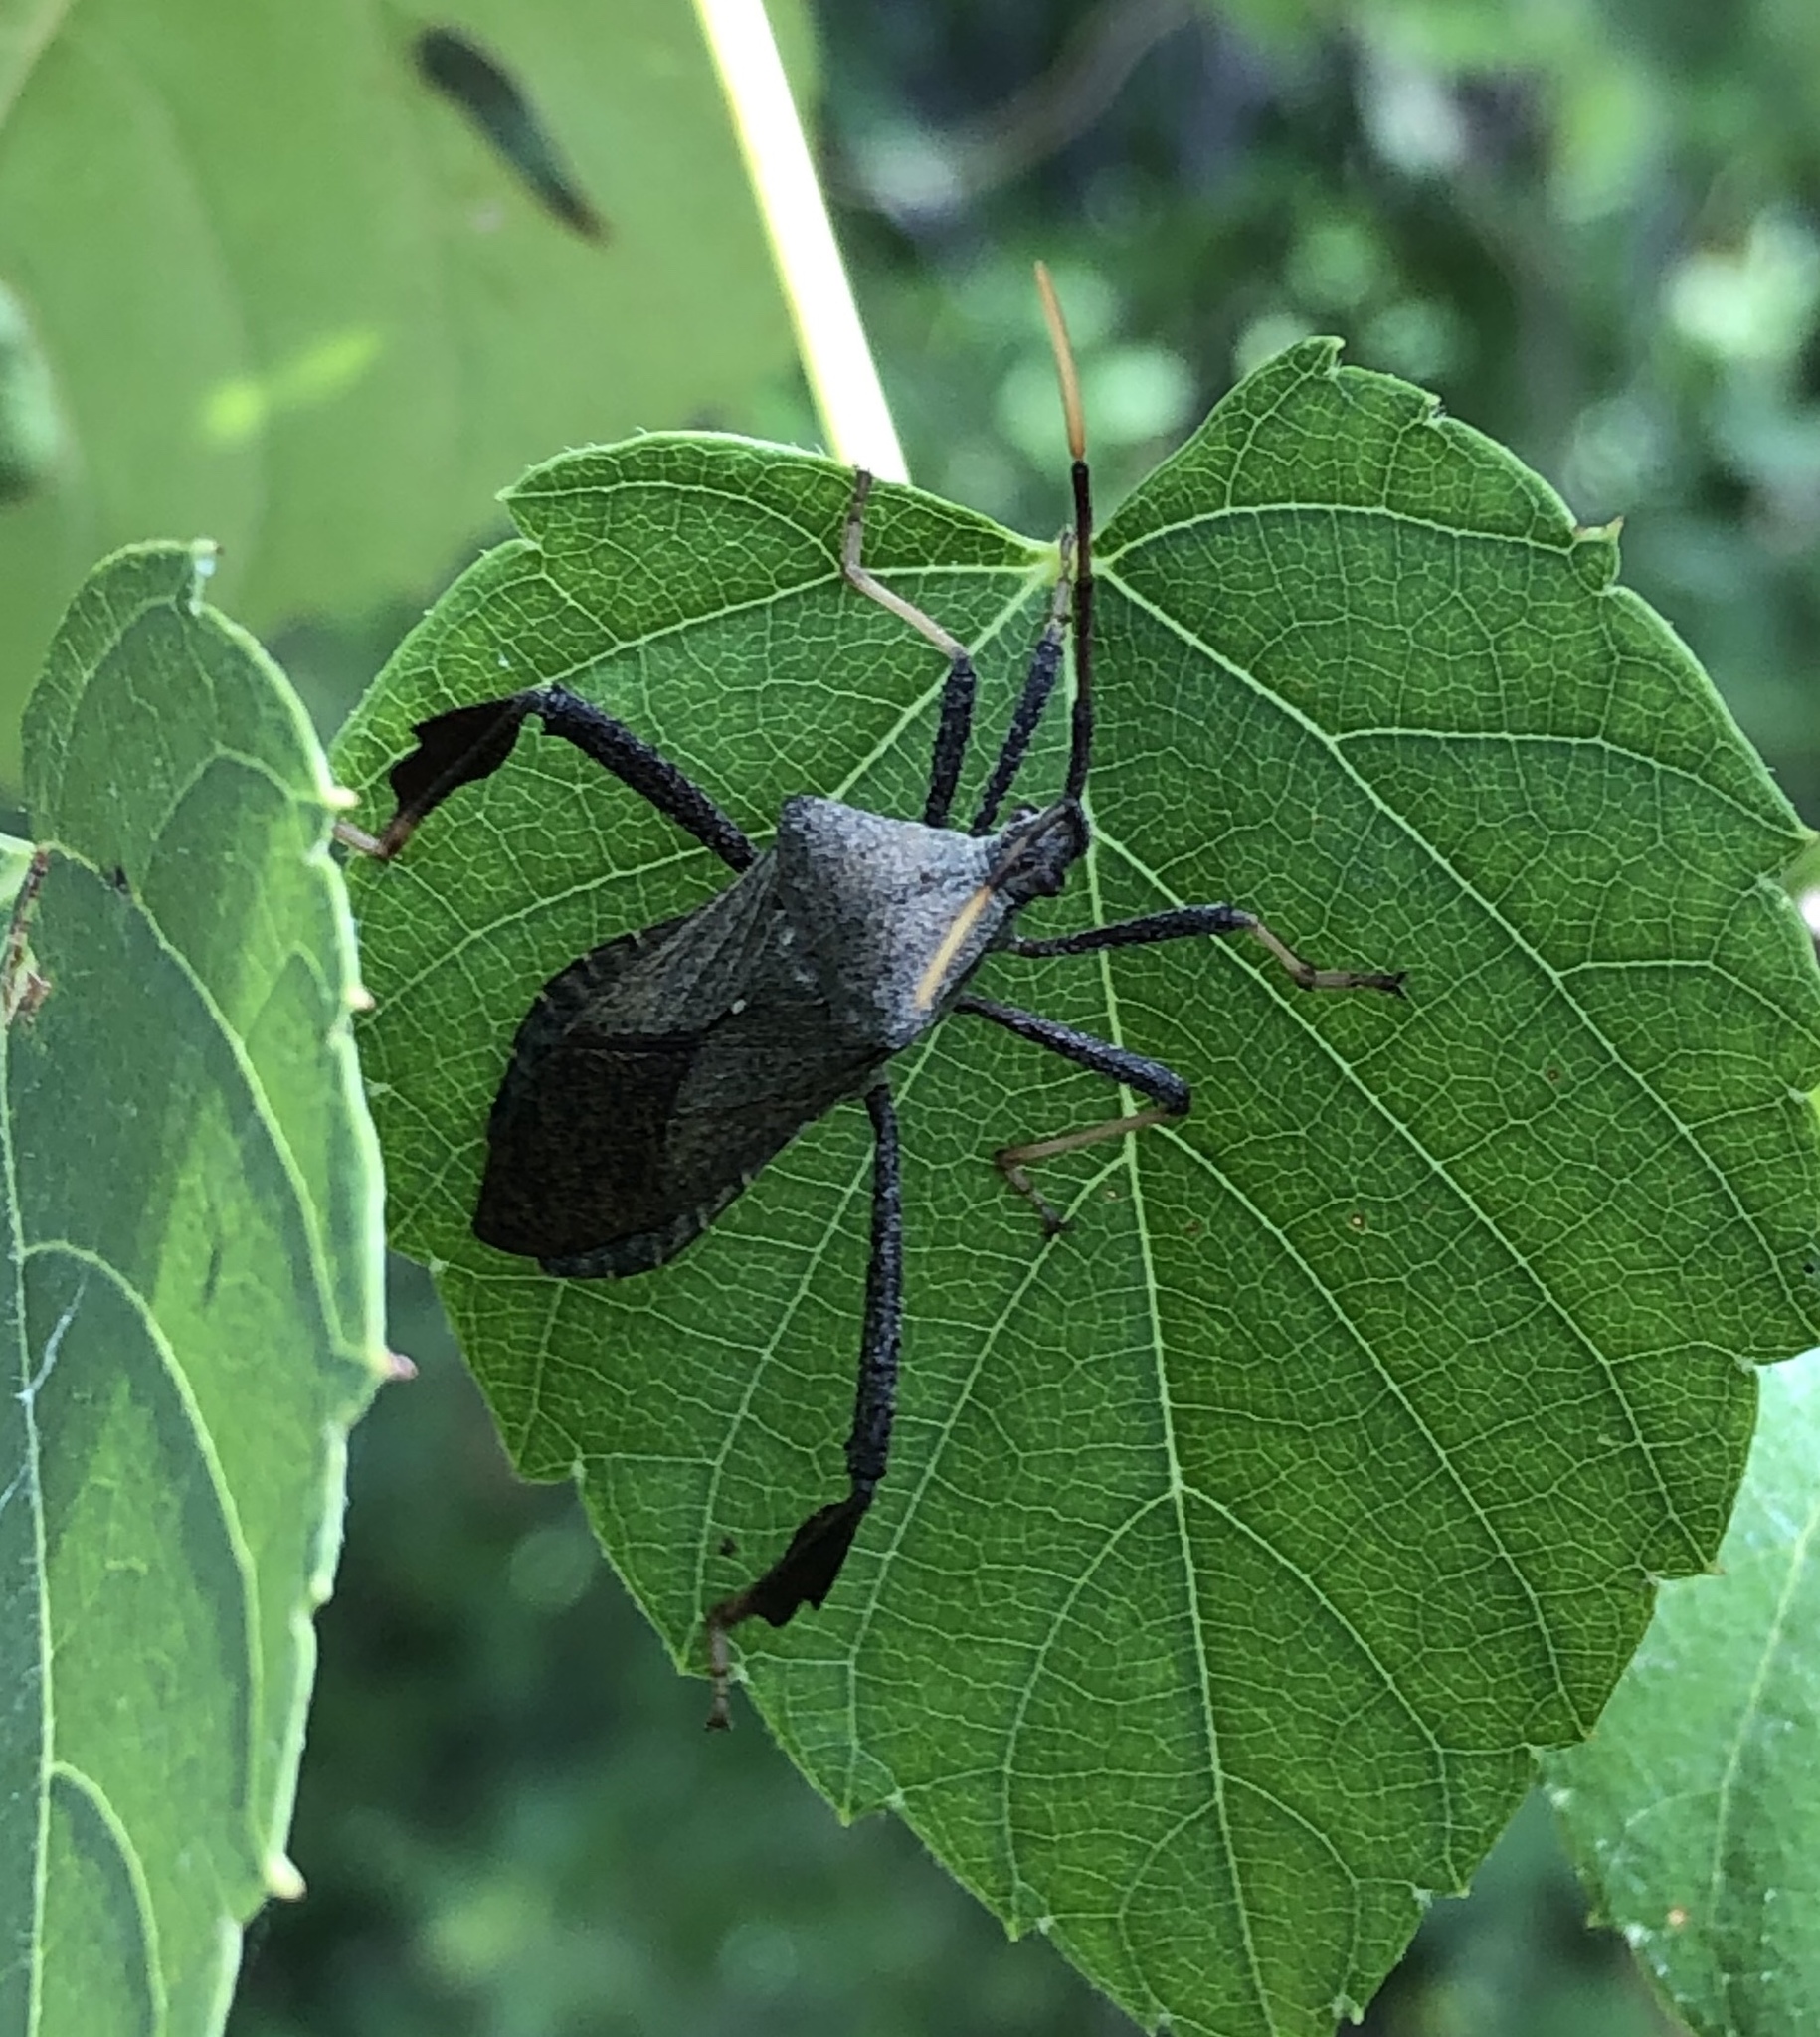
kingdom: Animalia
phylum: Arthropoda
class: Insecta
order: Hemiptera
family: Coreidae
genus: Acanthocephala
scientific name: Acanthocephala terminalis
